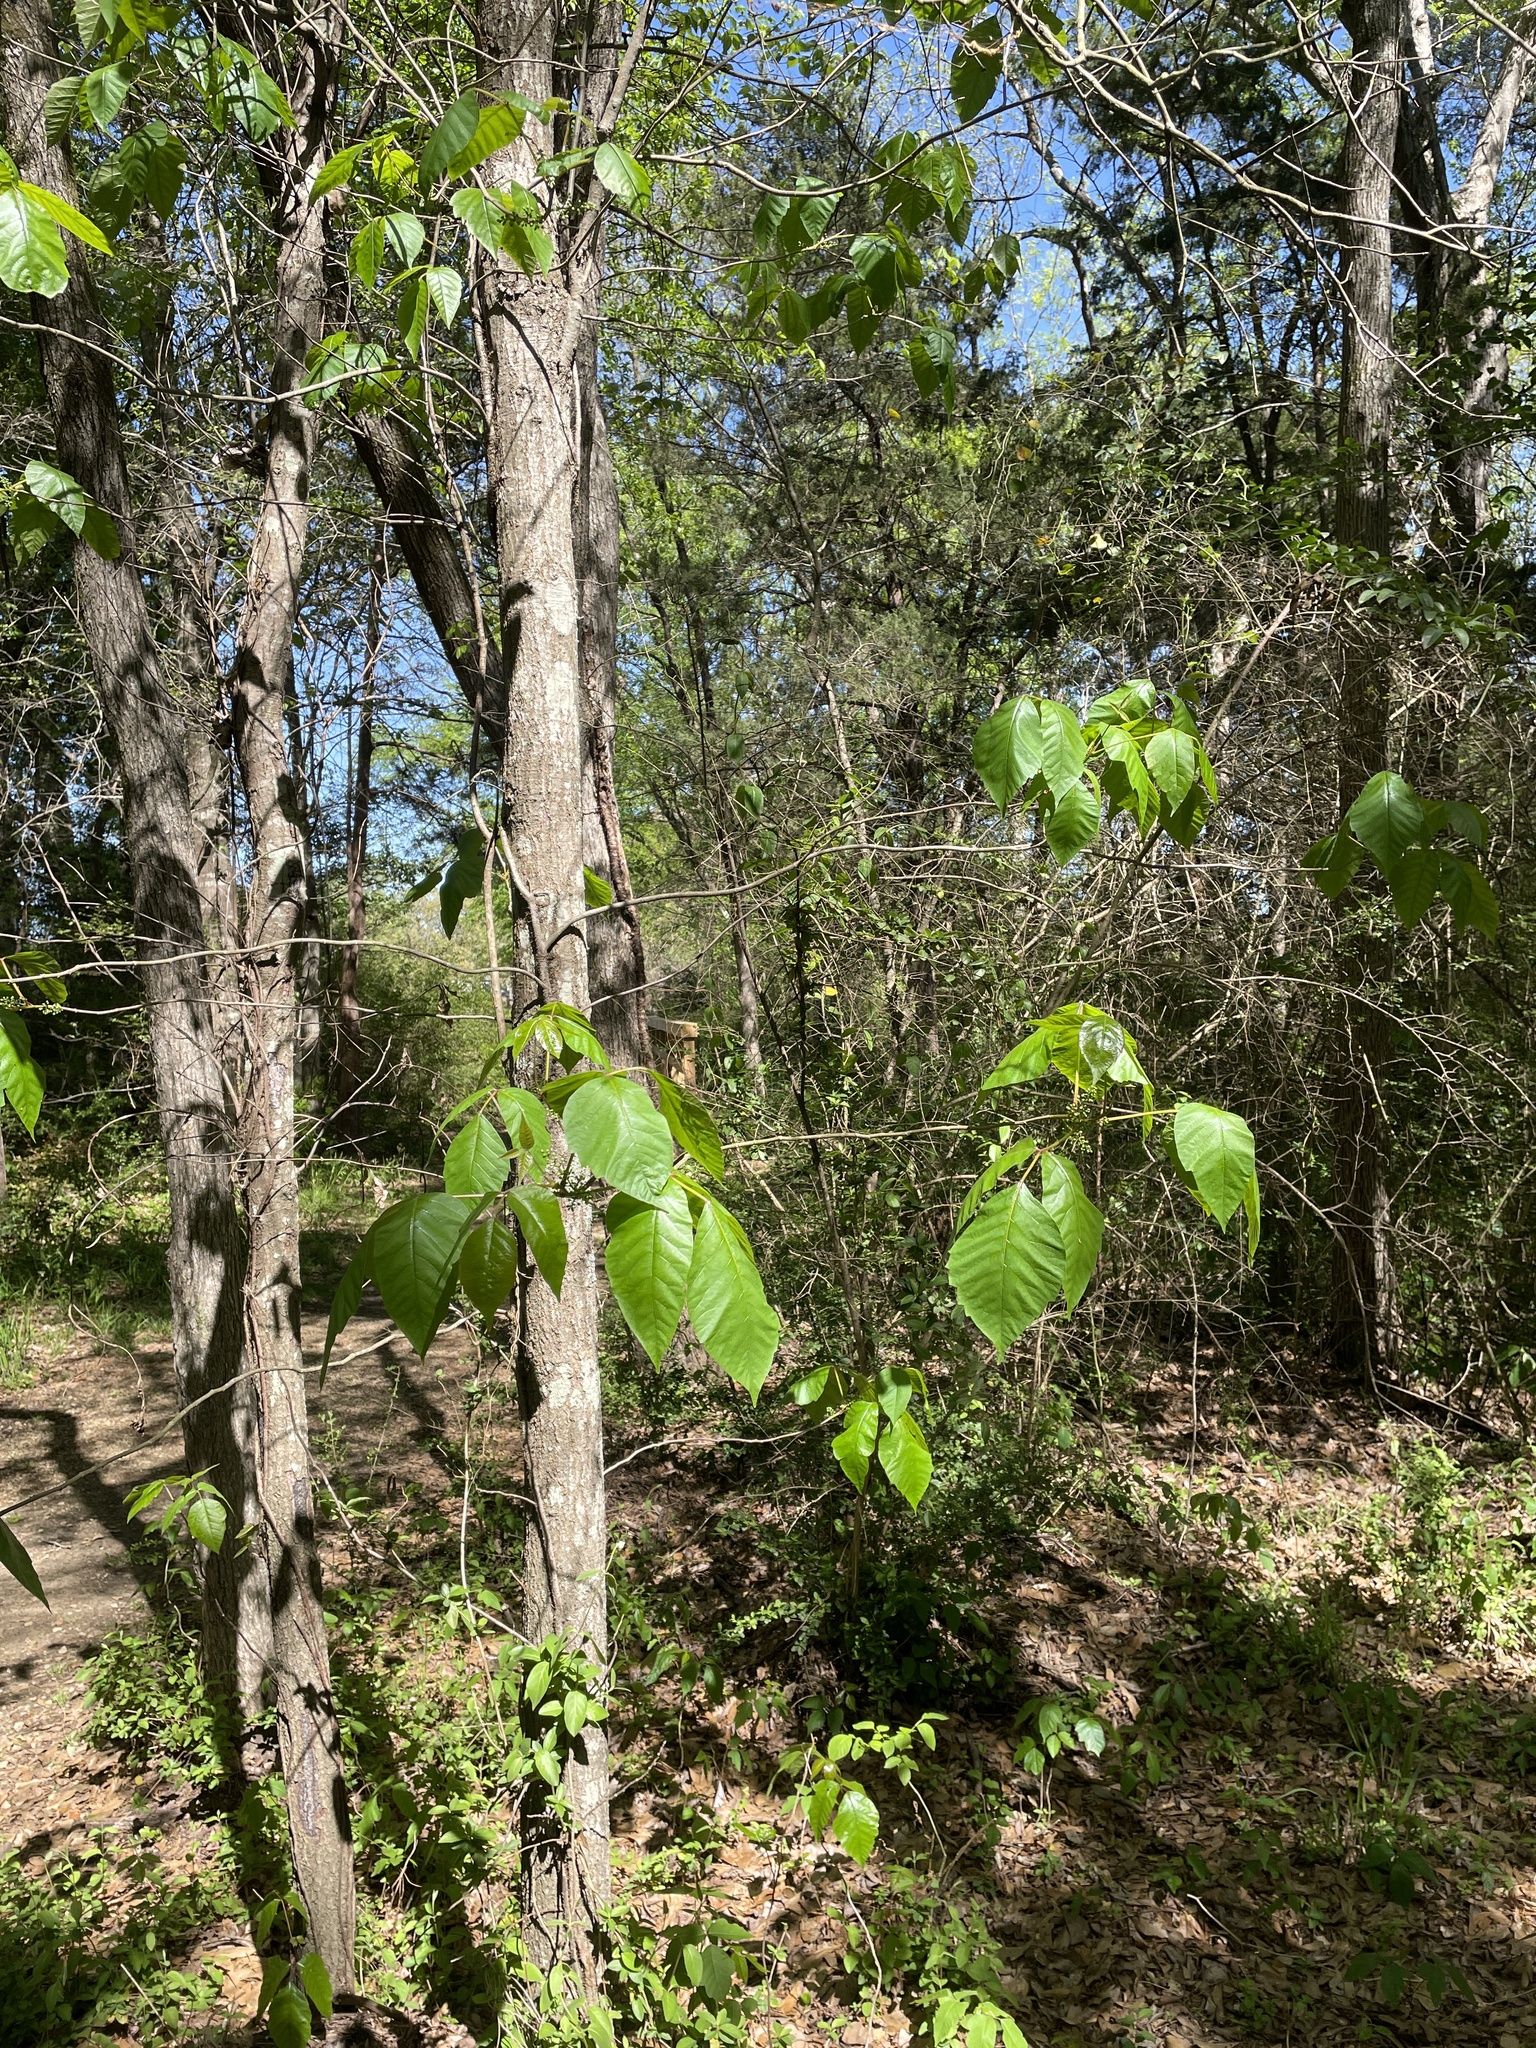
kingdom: Plantae
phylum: Tracheophyta
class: Magnoliopsida
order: Sapindales
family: Anacardiaceae
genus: Toxicodendron
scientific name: Toxicodendron pubescens
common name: Eastern poison-oak
